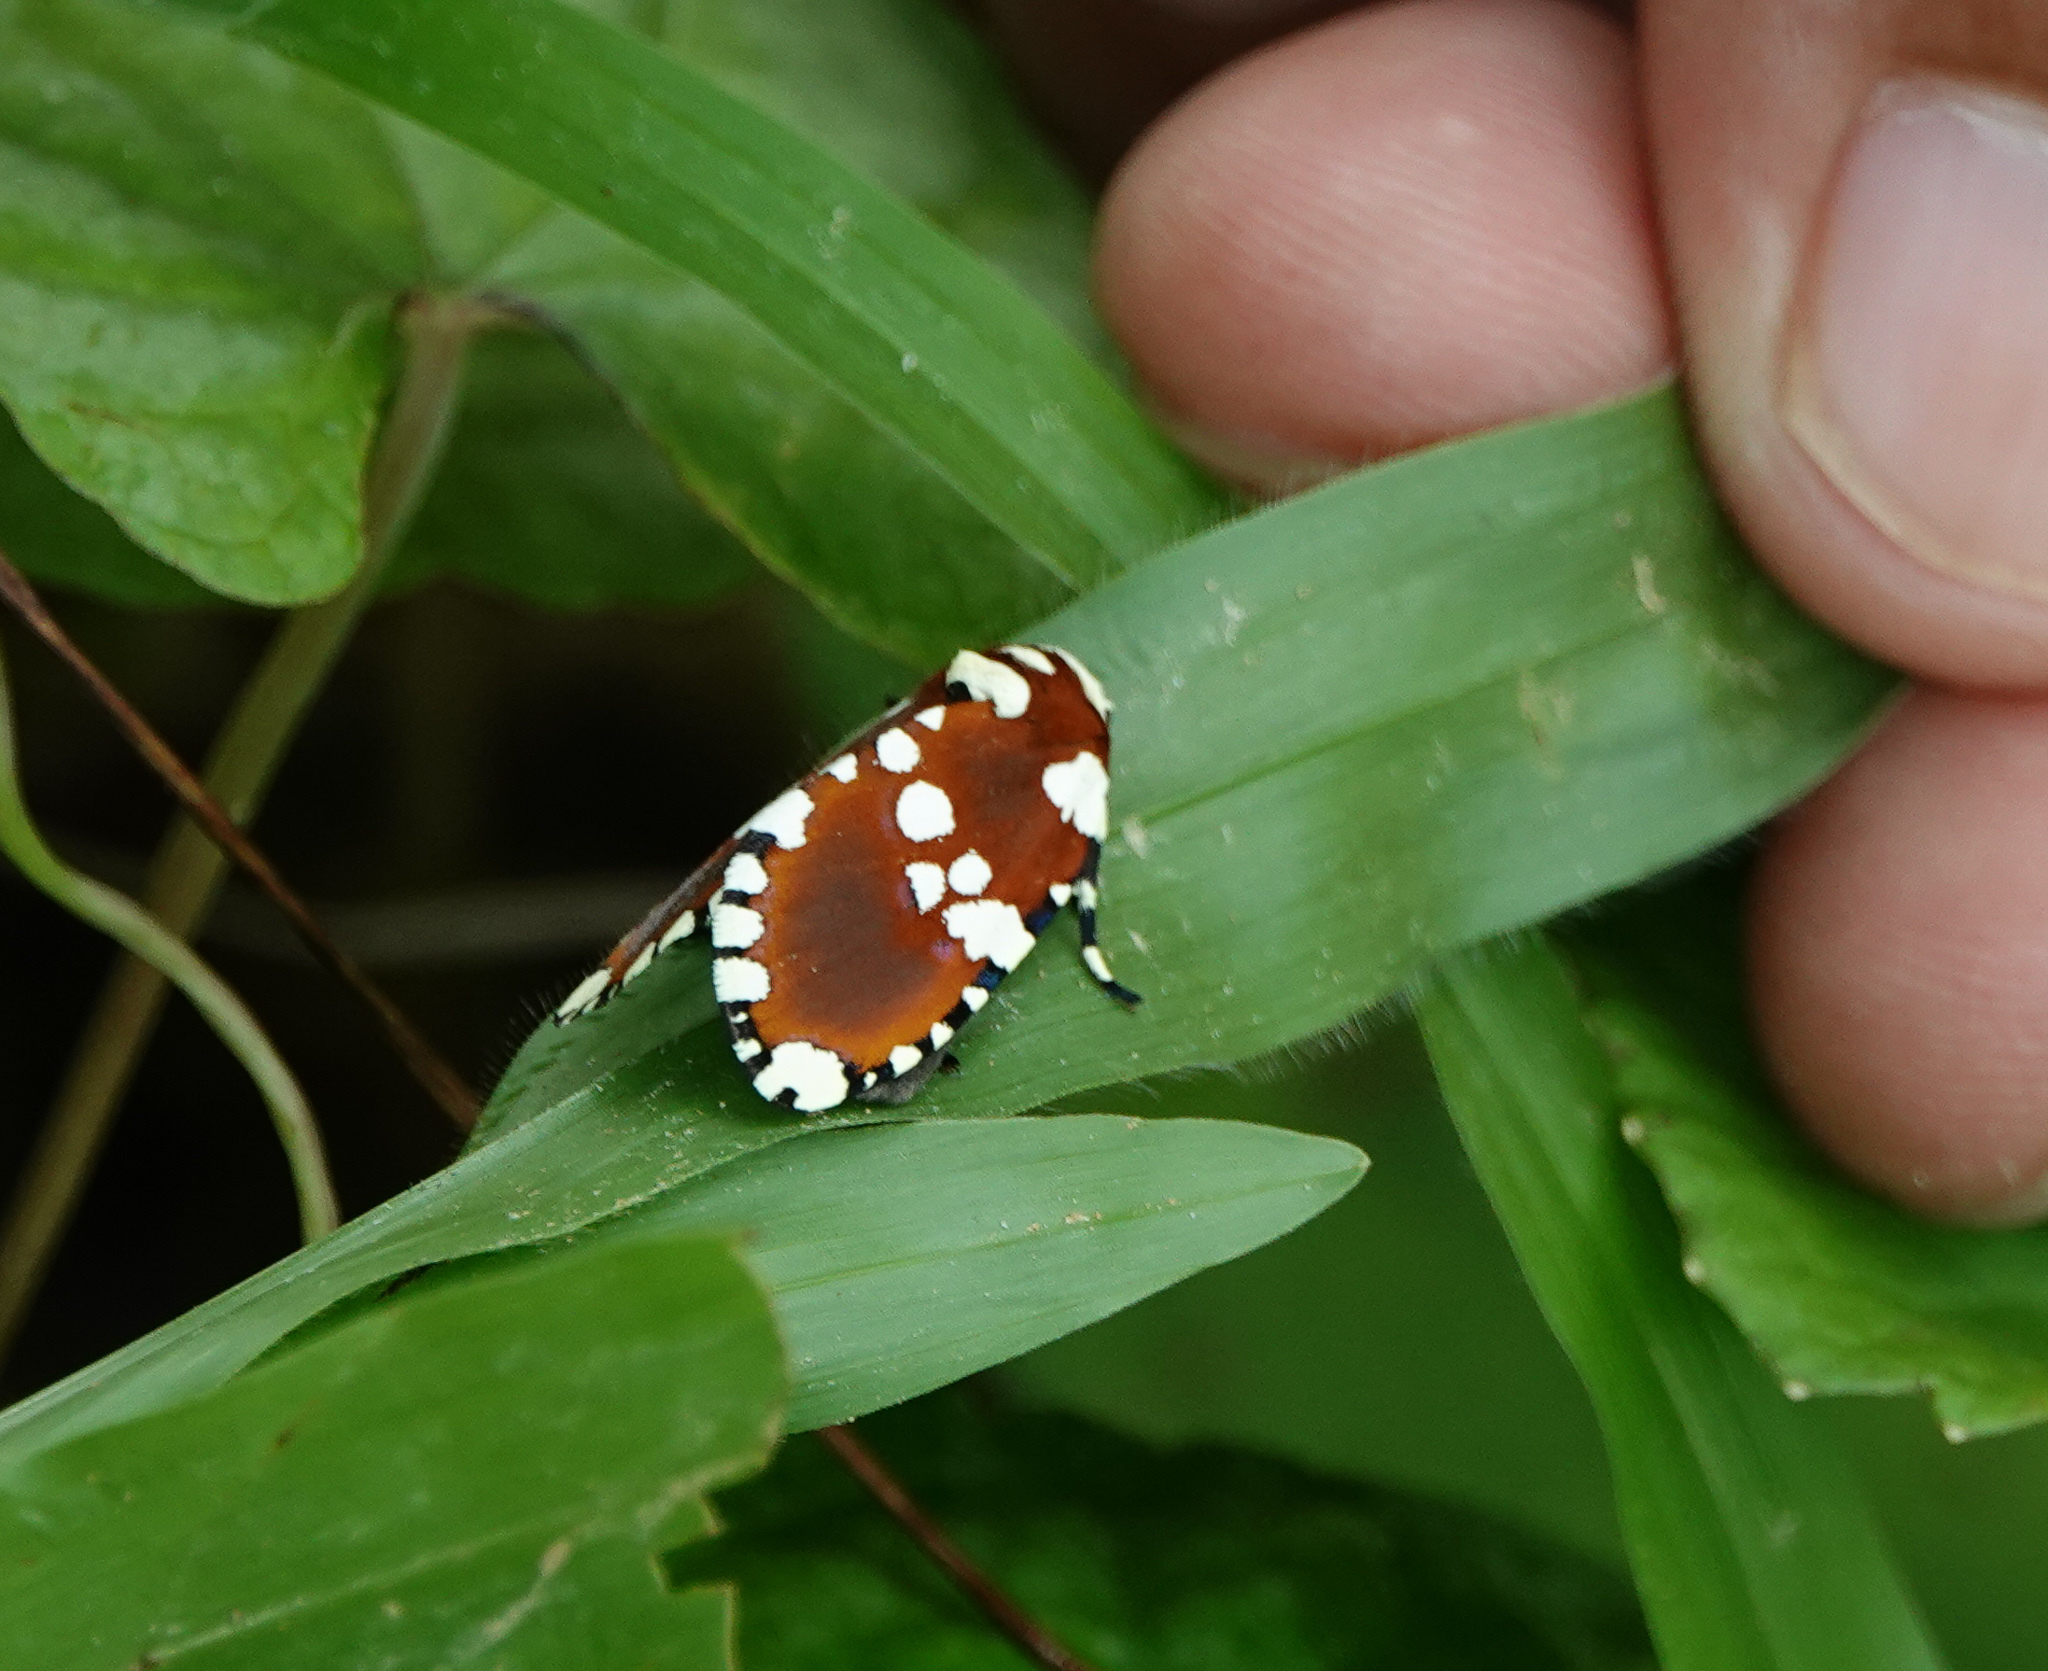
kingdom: Animalia
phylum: Arthropoda
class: Insecta
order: Lepidoptera
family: Noctuidae
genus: Yepcalphis
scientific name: Yepcalphis dilectissima
